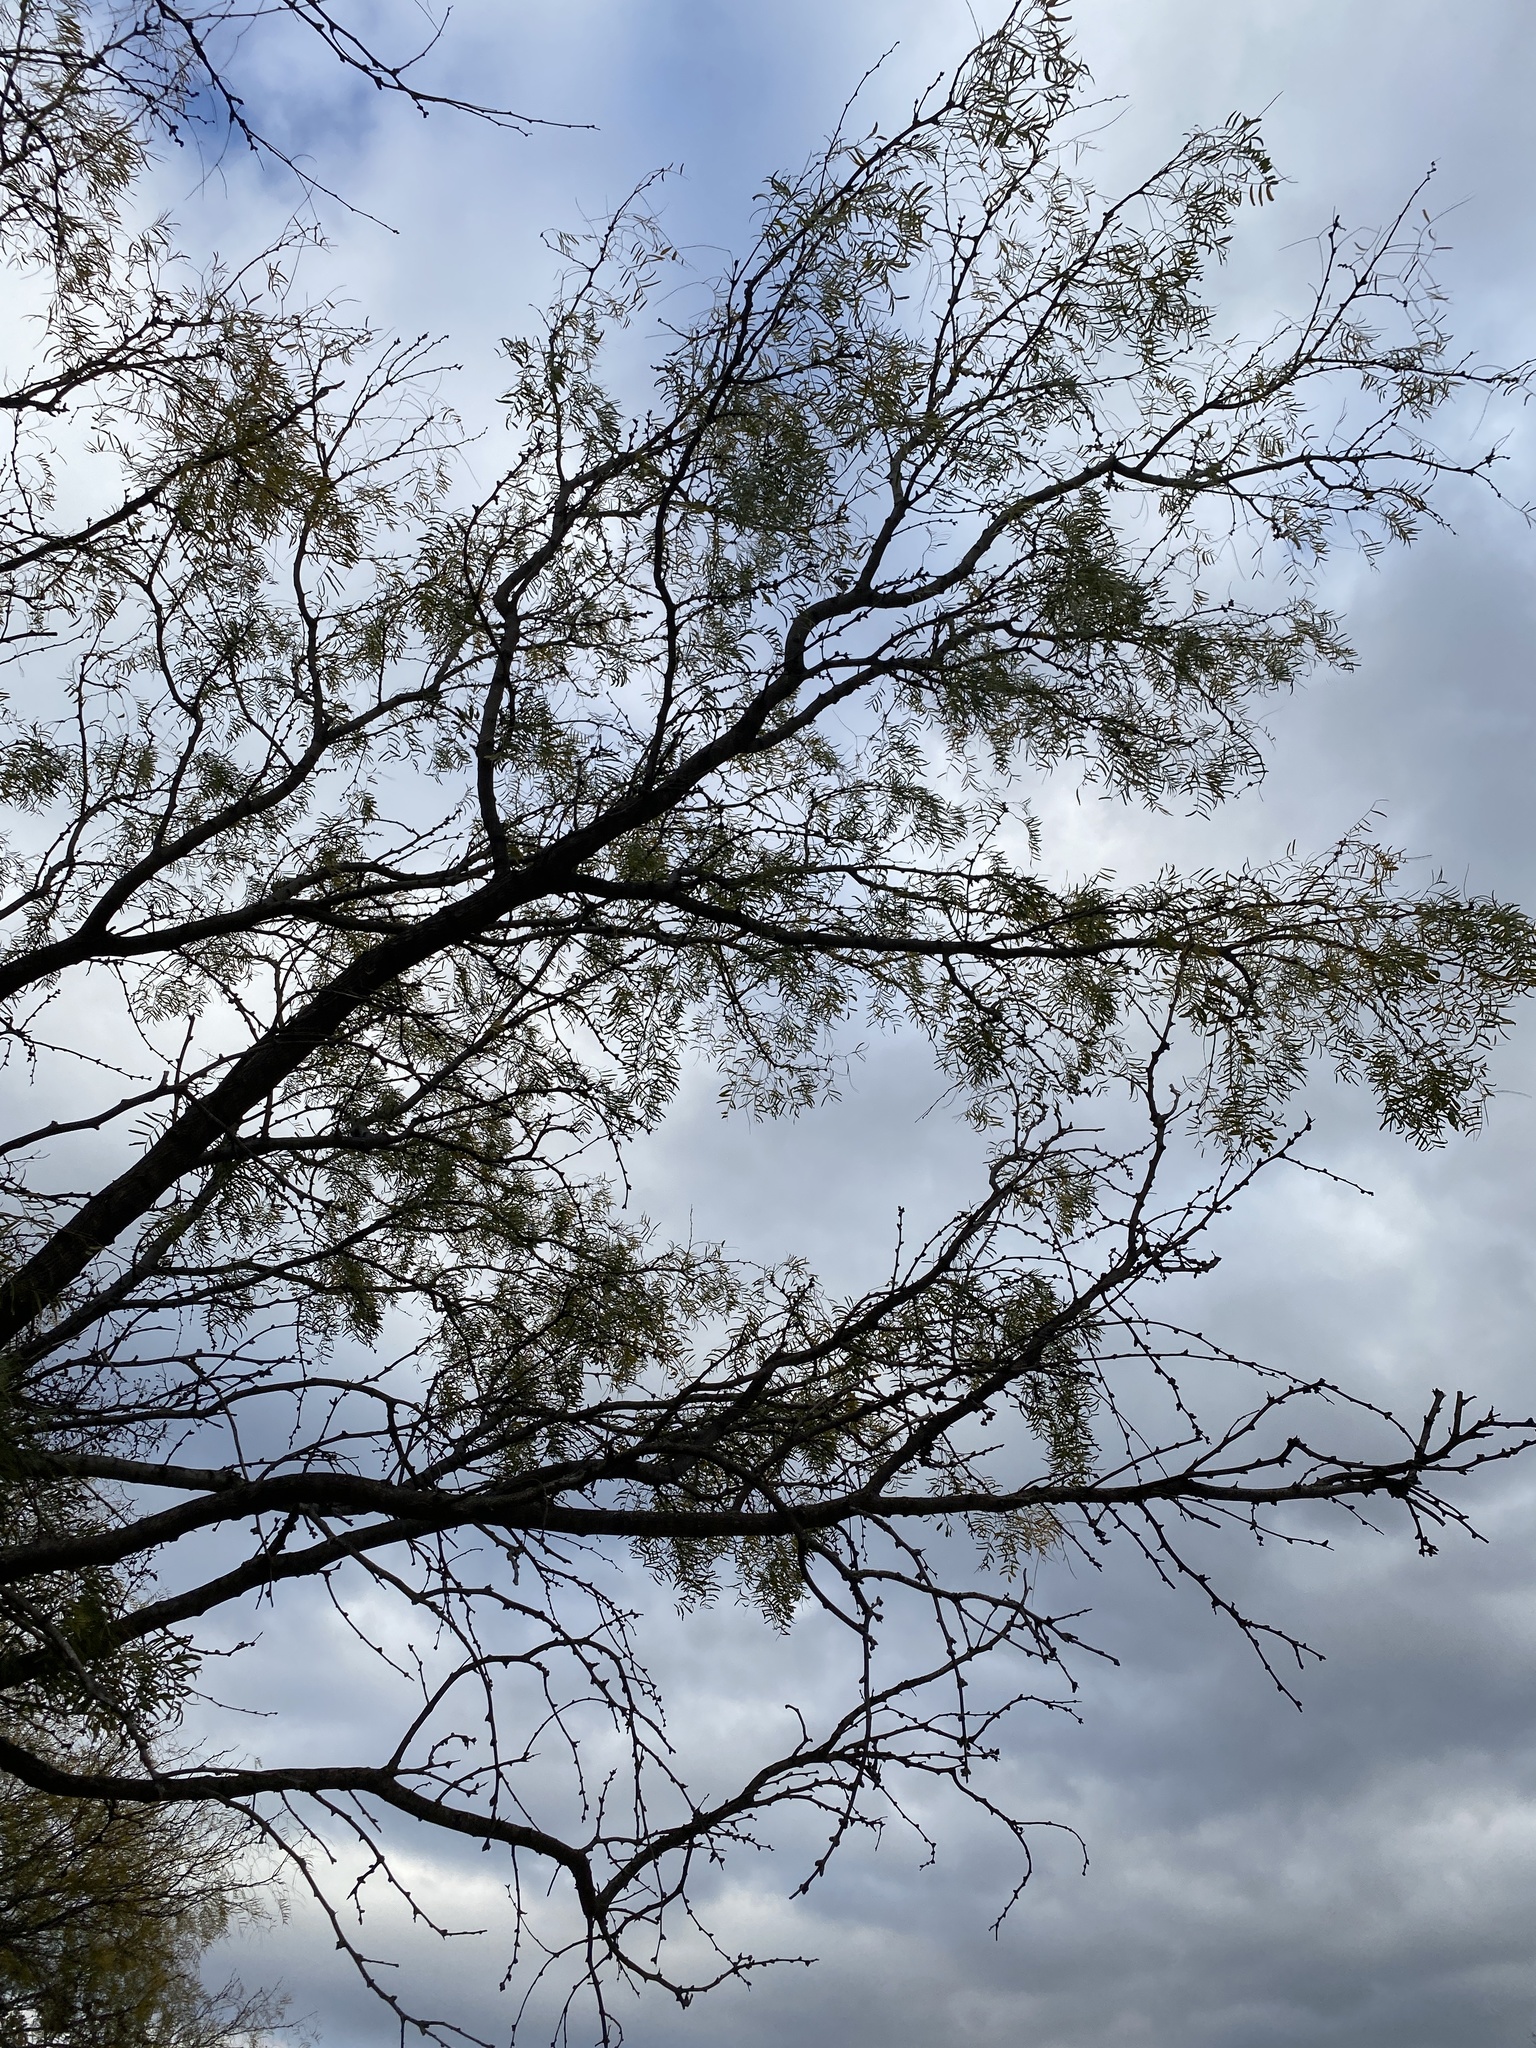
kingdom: Plantae
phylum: Tracheophyta
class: Magnoliopsida
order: Fabales
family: Fabaceae
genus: Prosopis
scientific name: Prosopis glandulosa
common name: Honey mesquite
